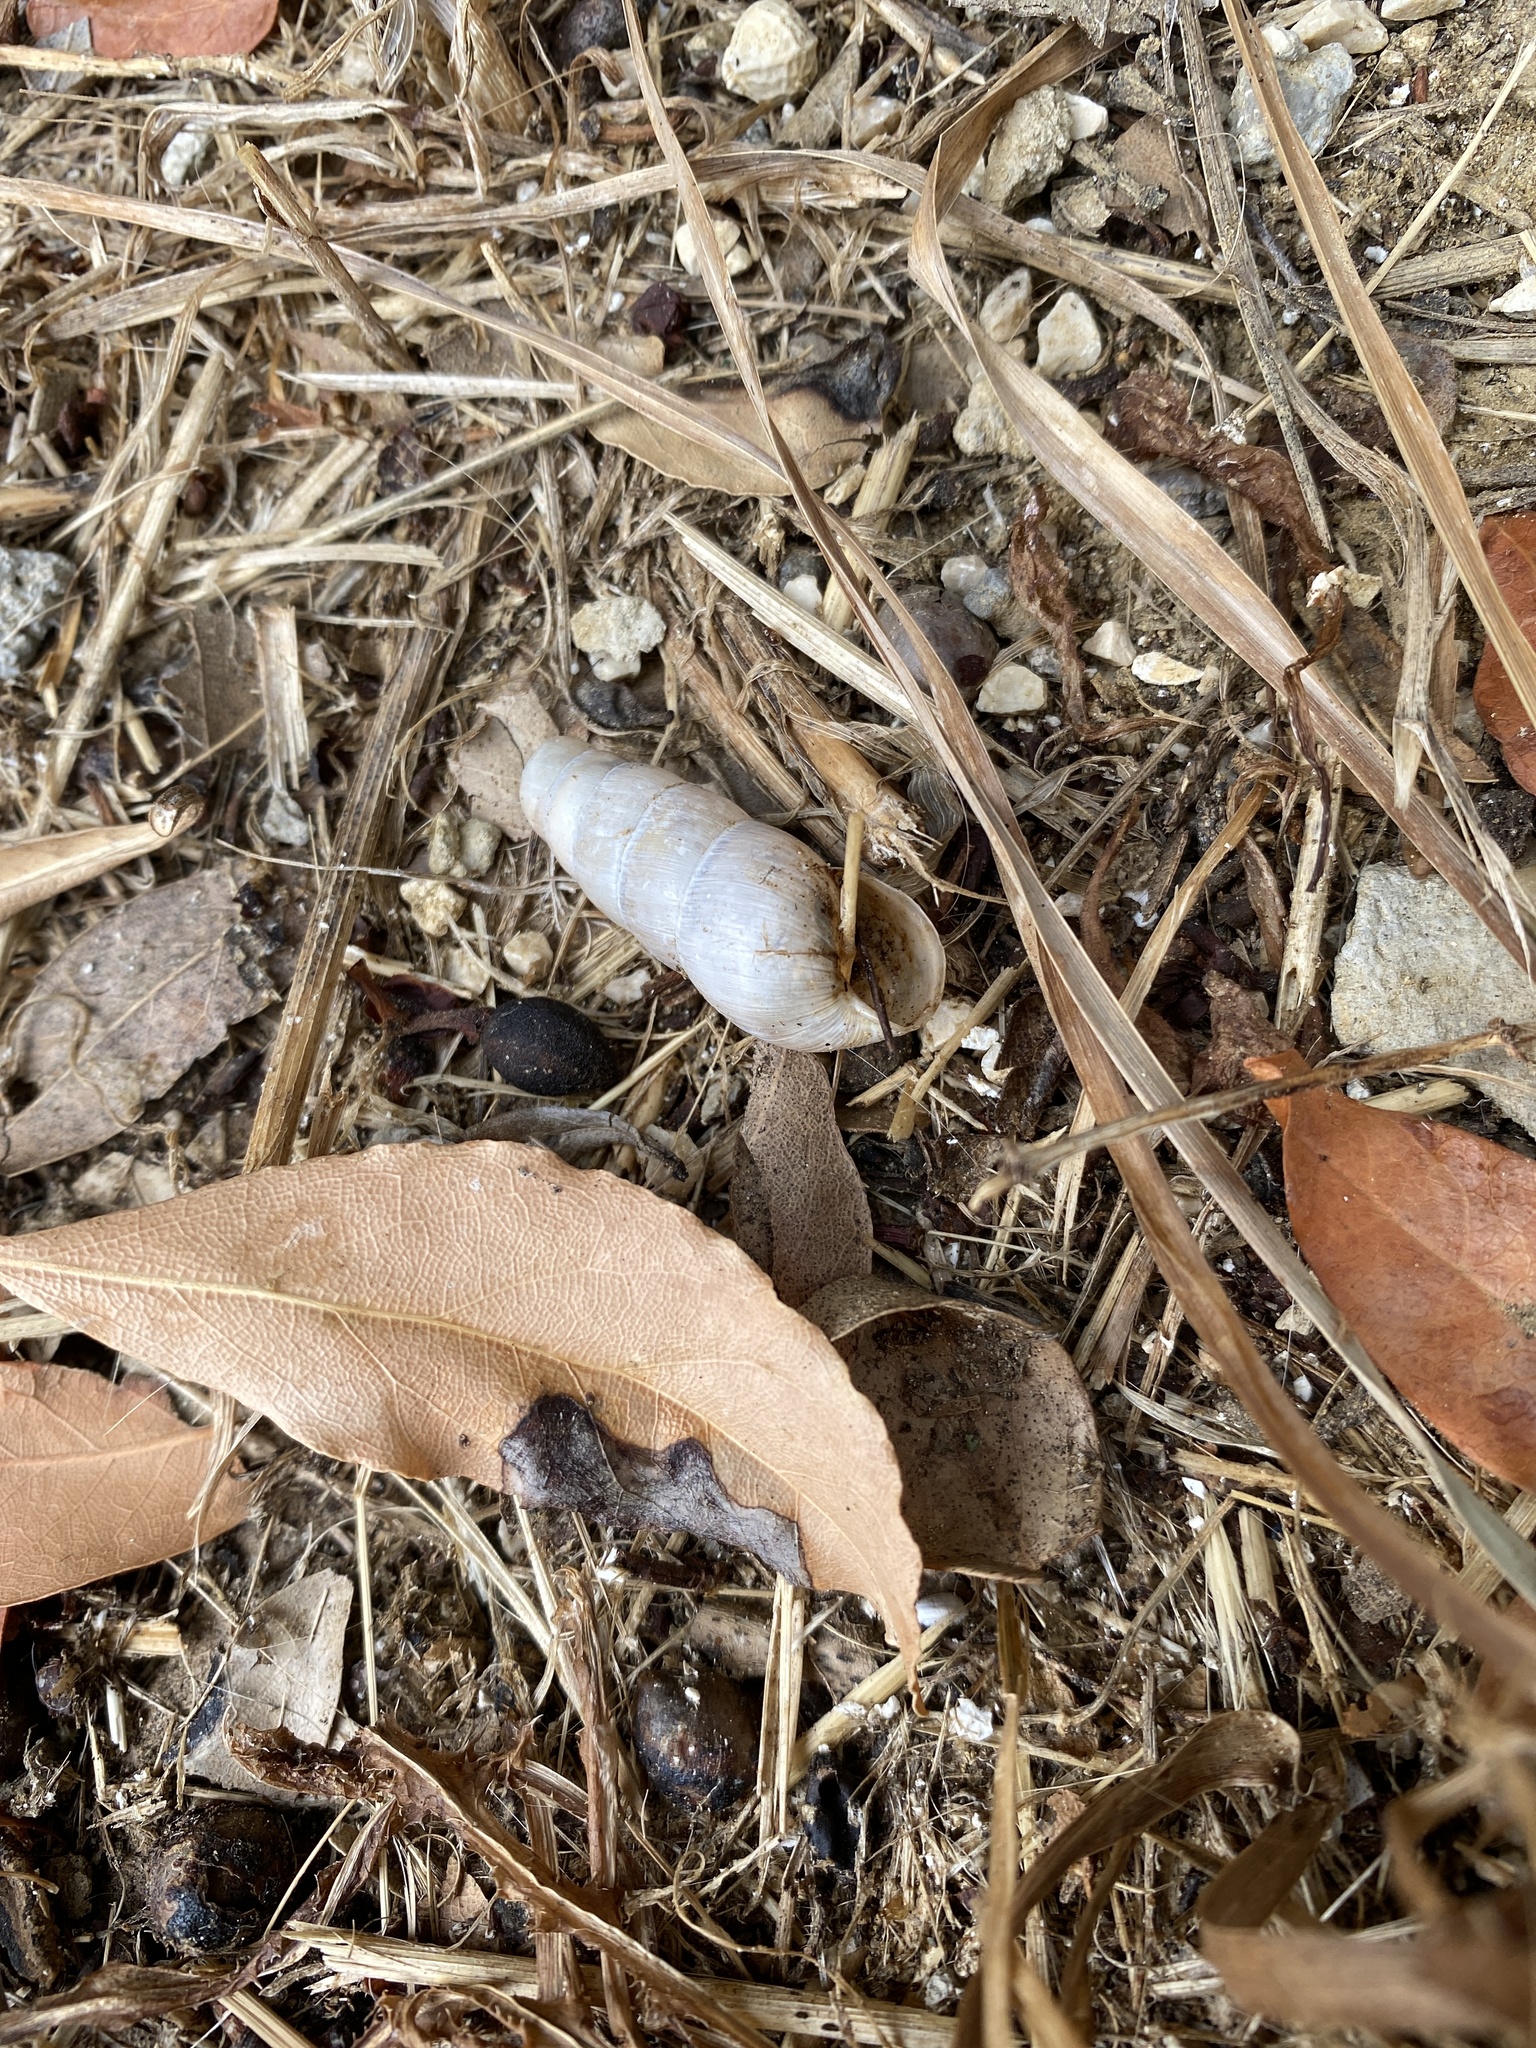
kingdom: Animalia
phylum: Mollusca
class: Gastropoda
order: Stylommatophora
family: Achatinidae
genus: Rumina
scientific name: Rumina decollata
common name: Decollate snail
